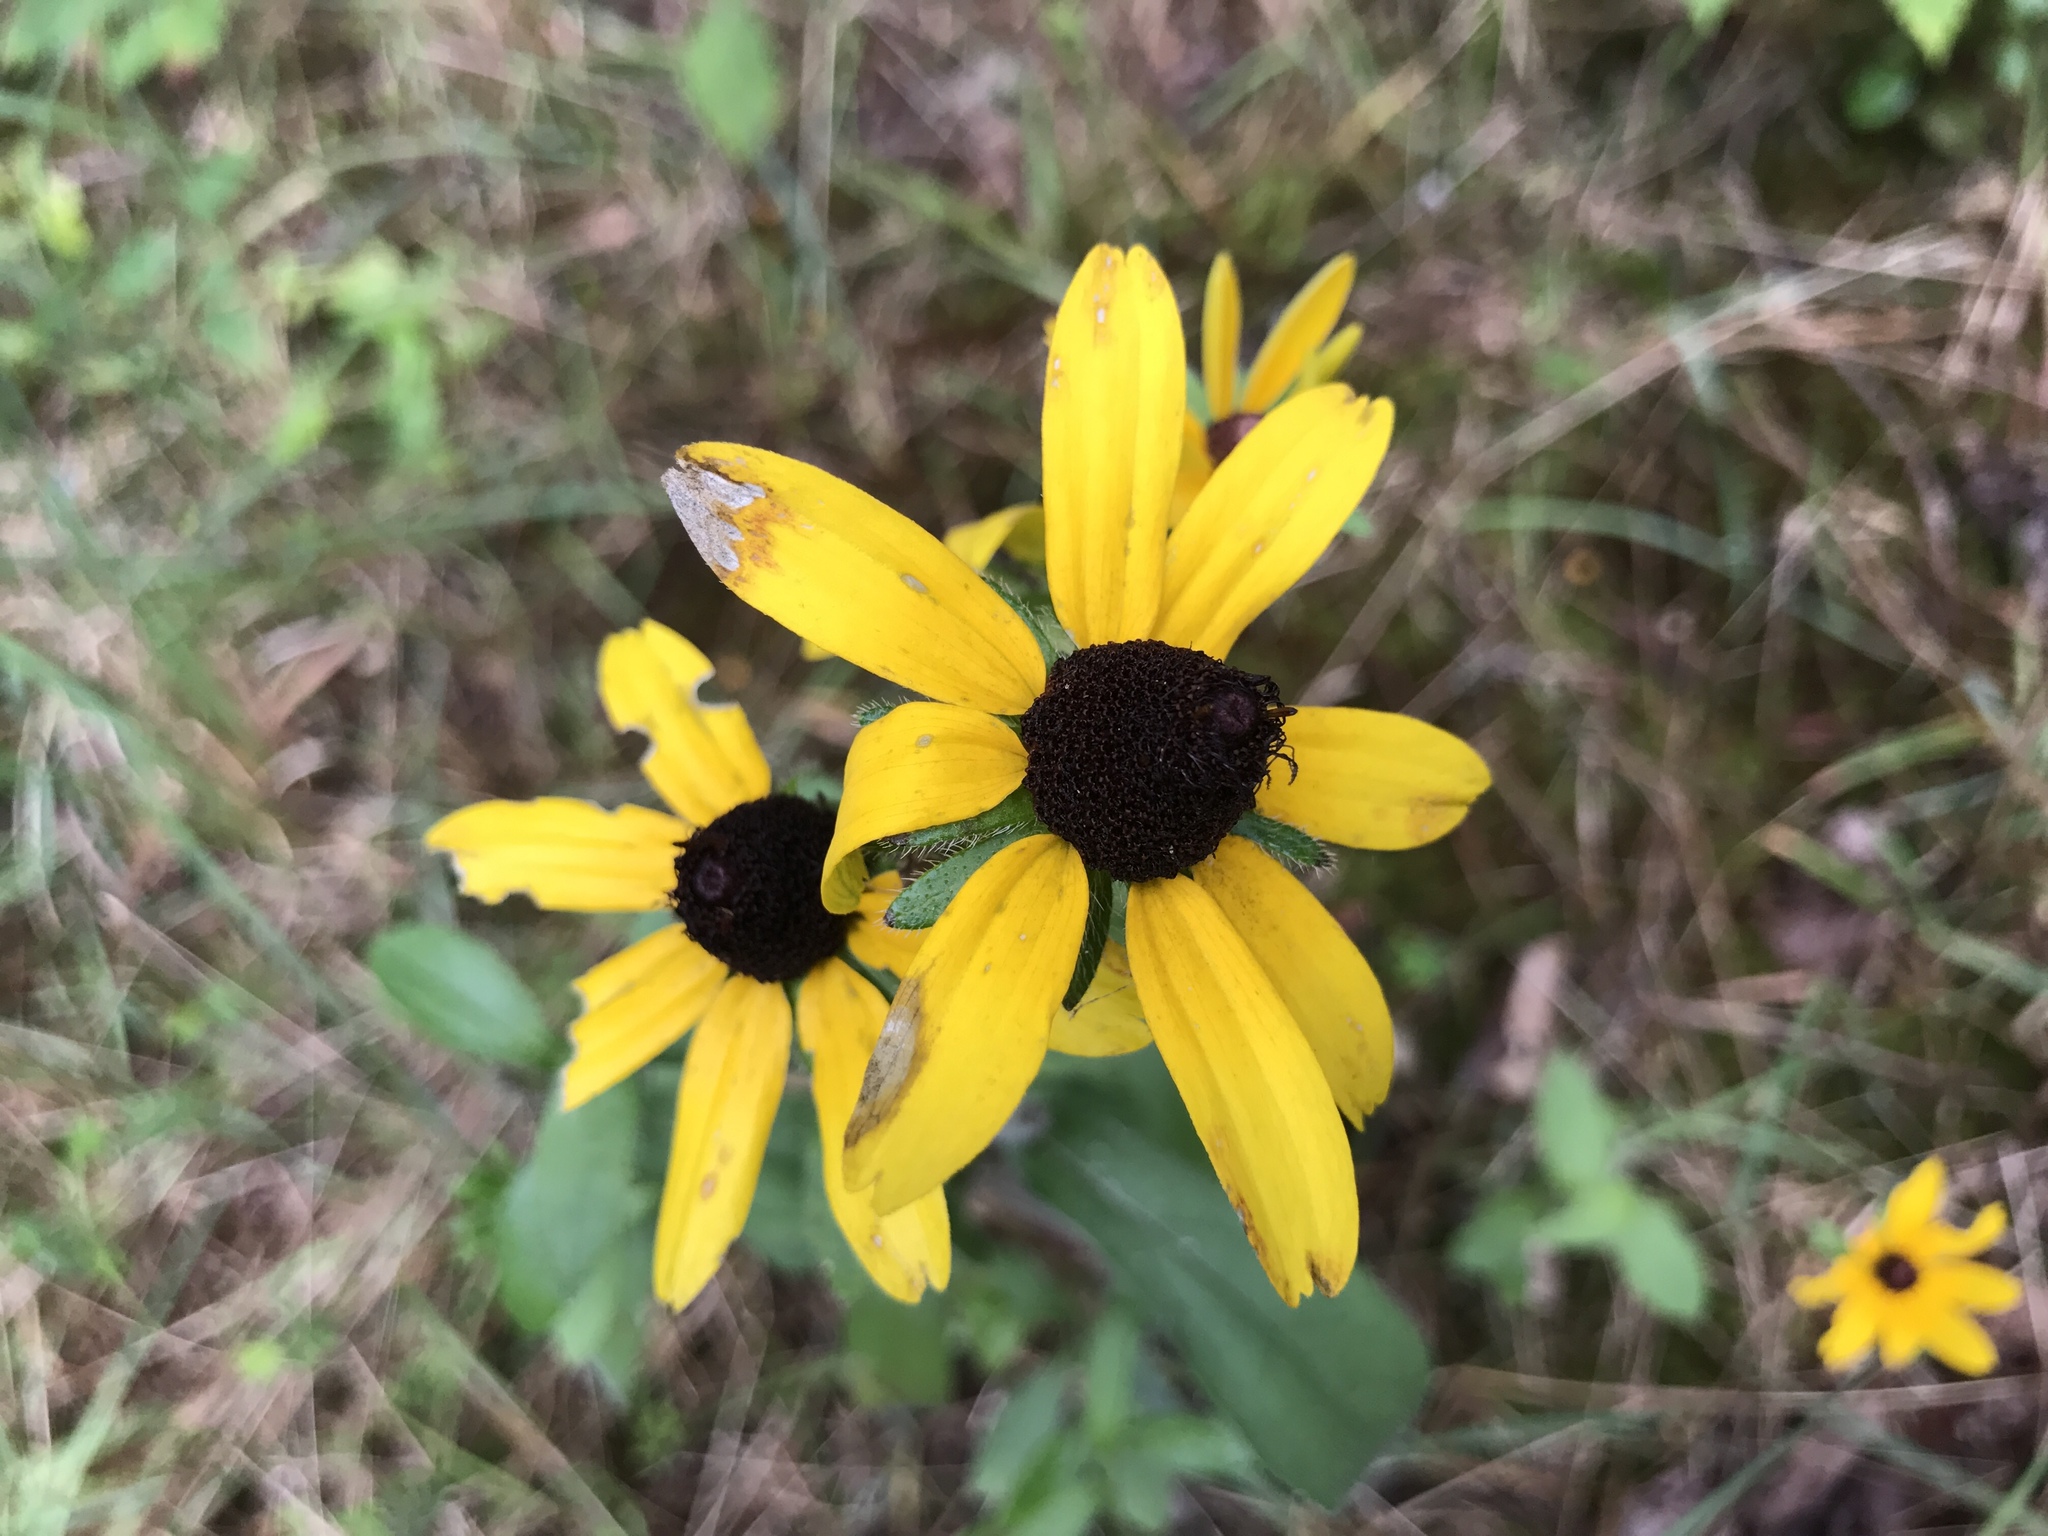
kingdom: Plantae
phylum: Tracheophyta
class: Magnoliopsida
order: Asterales
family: Asteraceae
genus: Rudbeckia
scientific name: Rudbeckia hirta
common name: Black-eyed-susan
